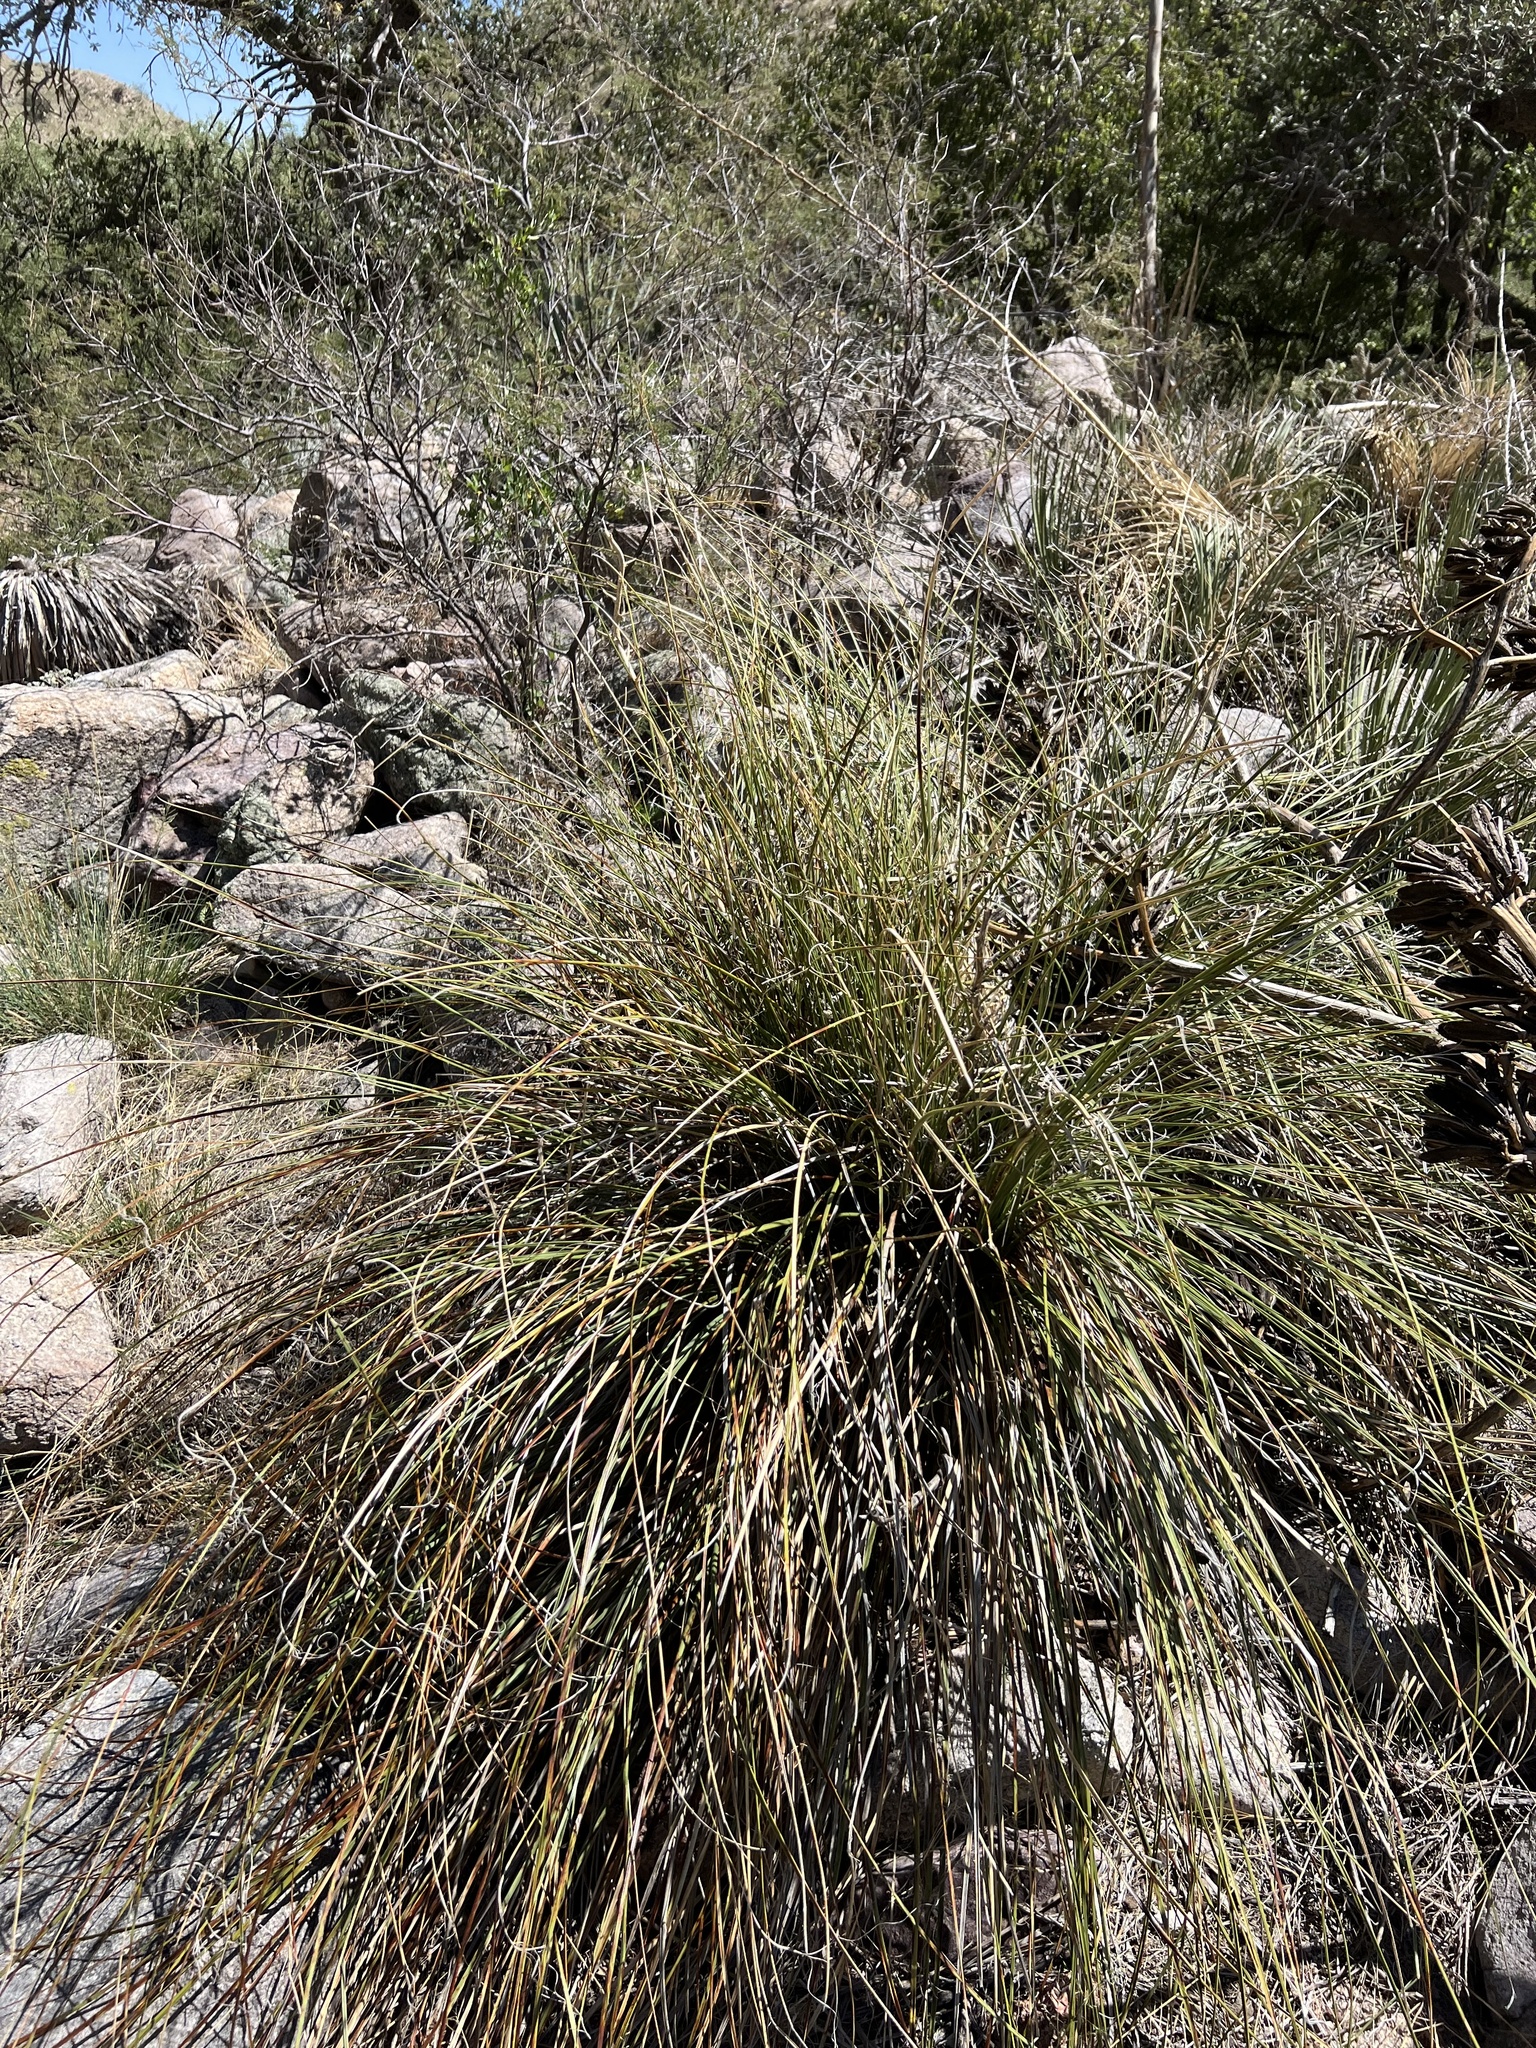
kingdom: Plantae
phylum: Tracheophyta
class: Liliopsida
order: Asparagales
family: Asparagaceae
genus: Nolina
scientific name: Nolina microcarpa
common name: Bear-grass
